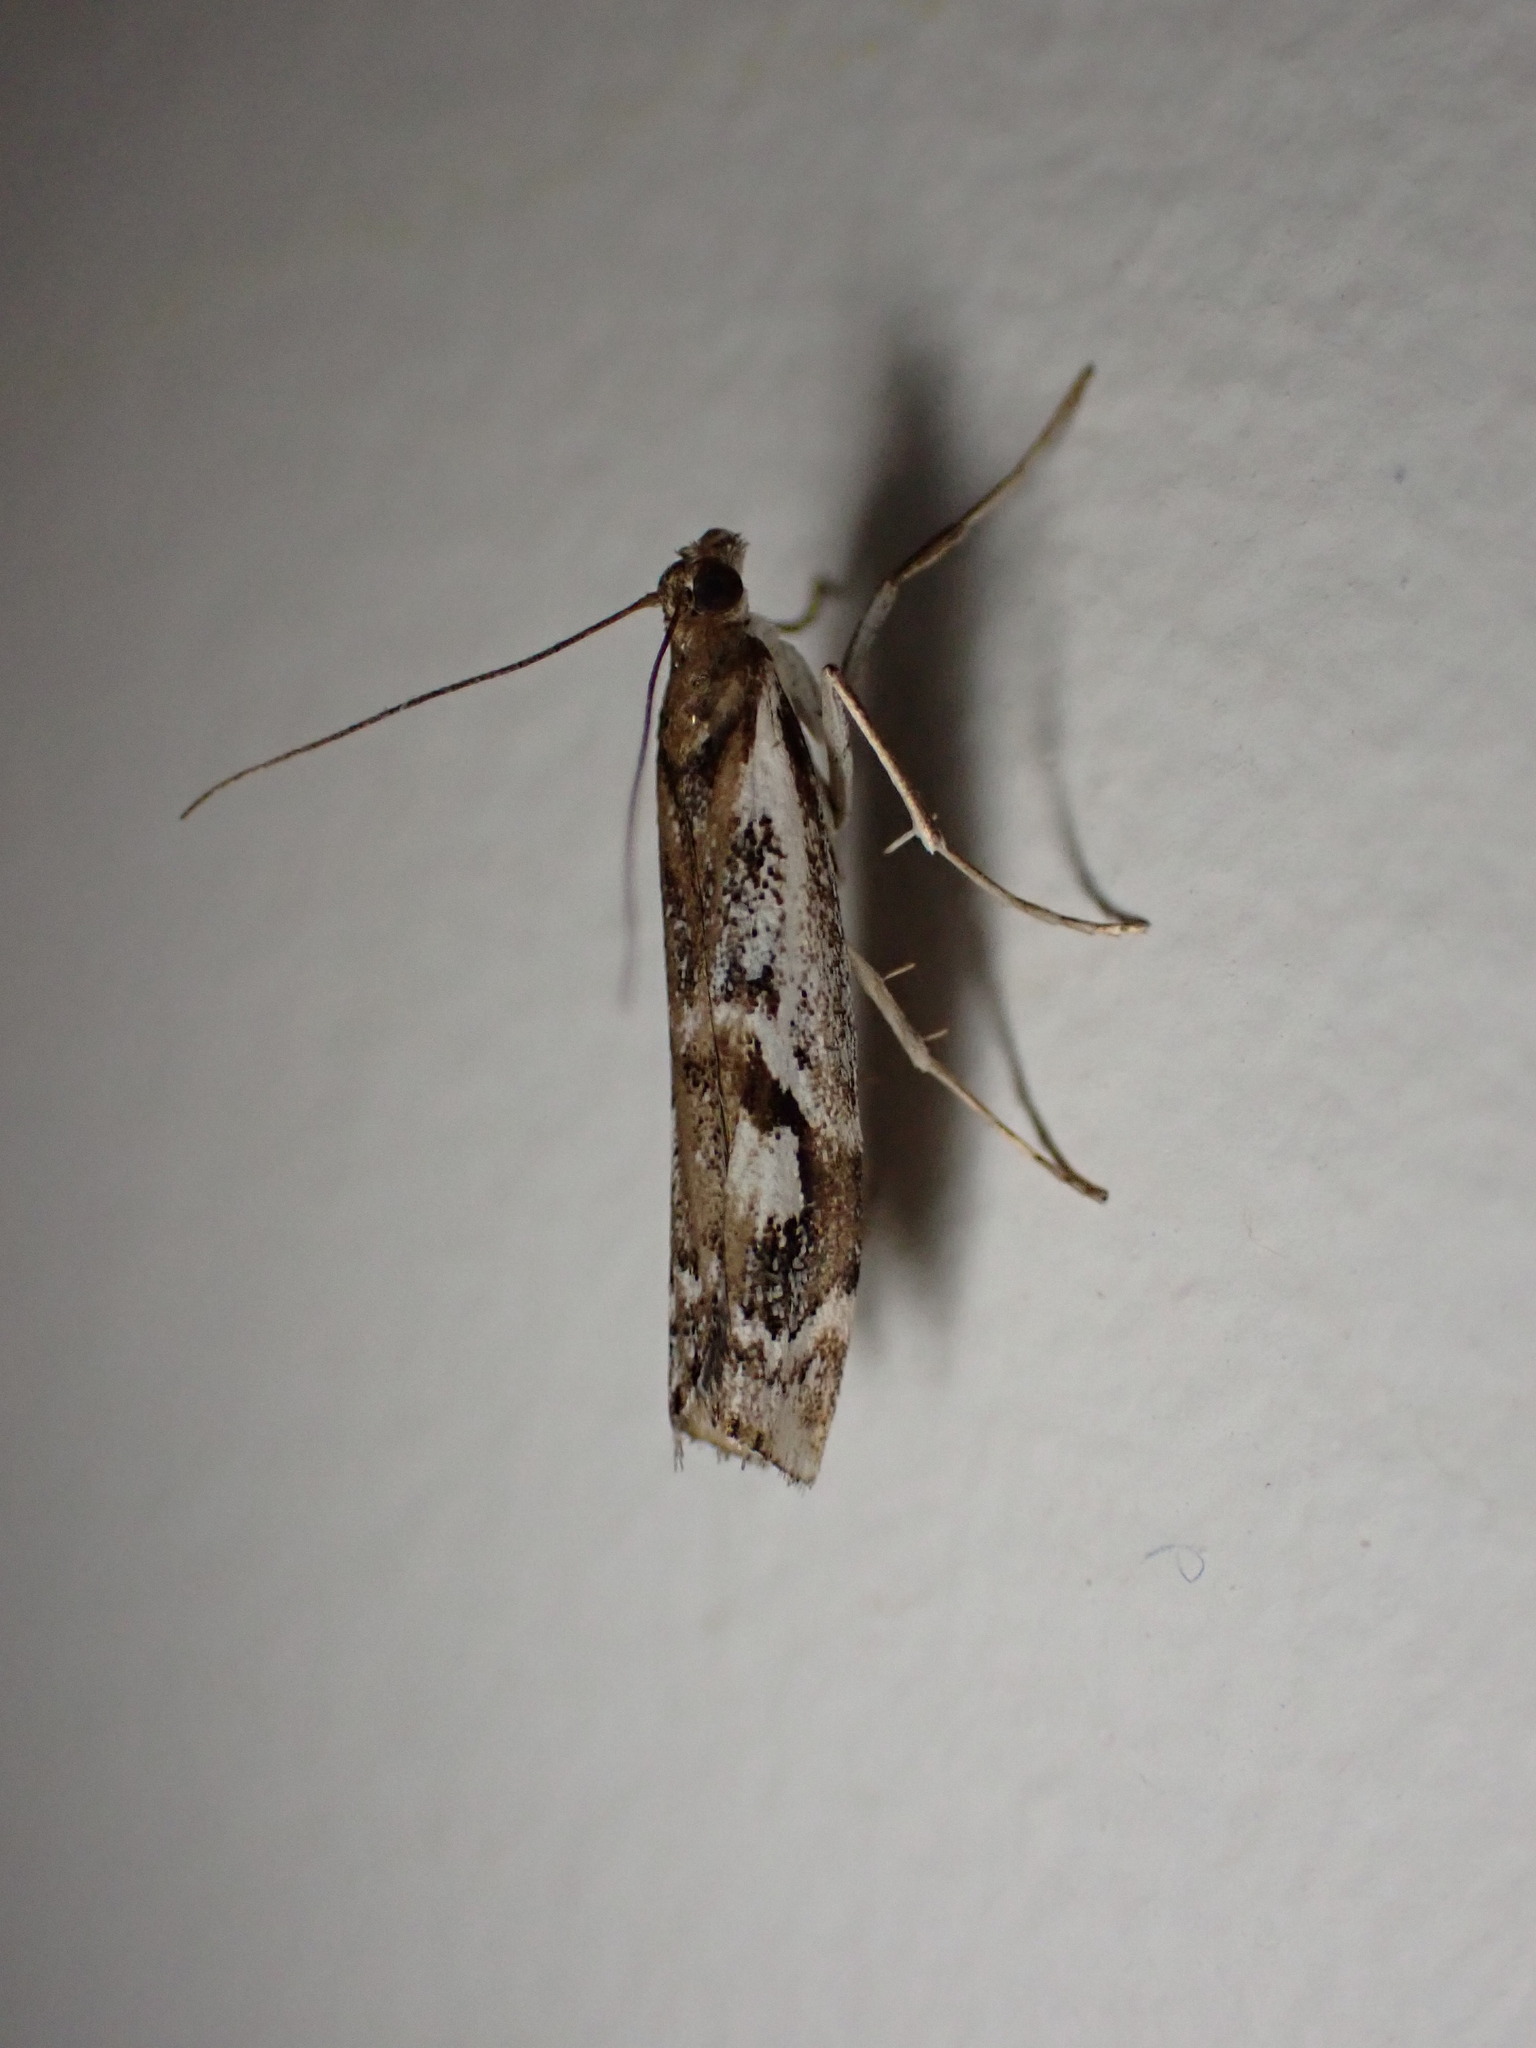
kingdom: Animalia
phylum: Arthropoda
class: Insecta
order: Lepidoptera
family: Crambidae
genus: Orocrambus
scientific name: Orocrambus vulgaris
